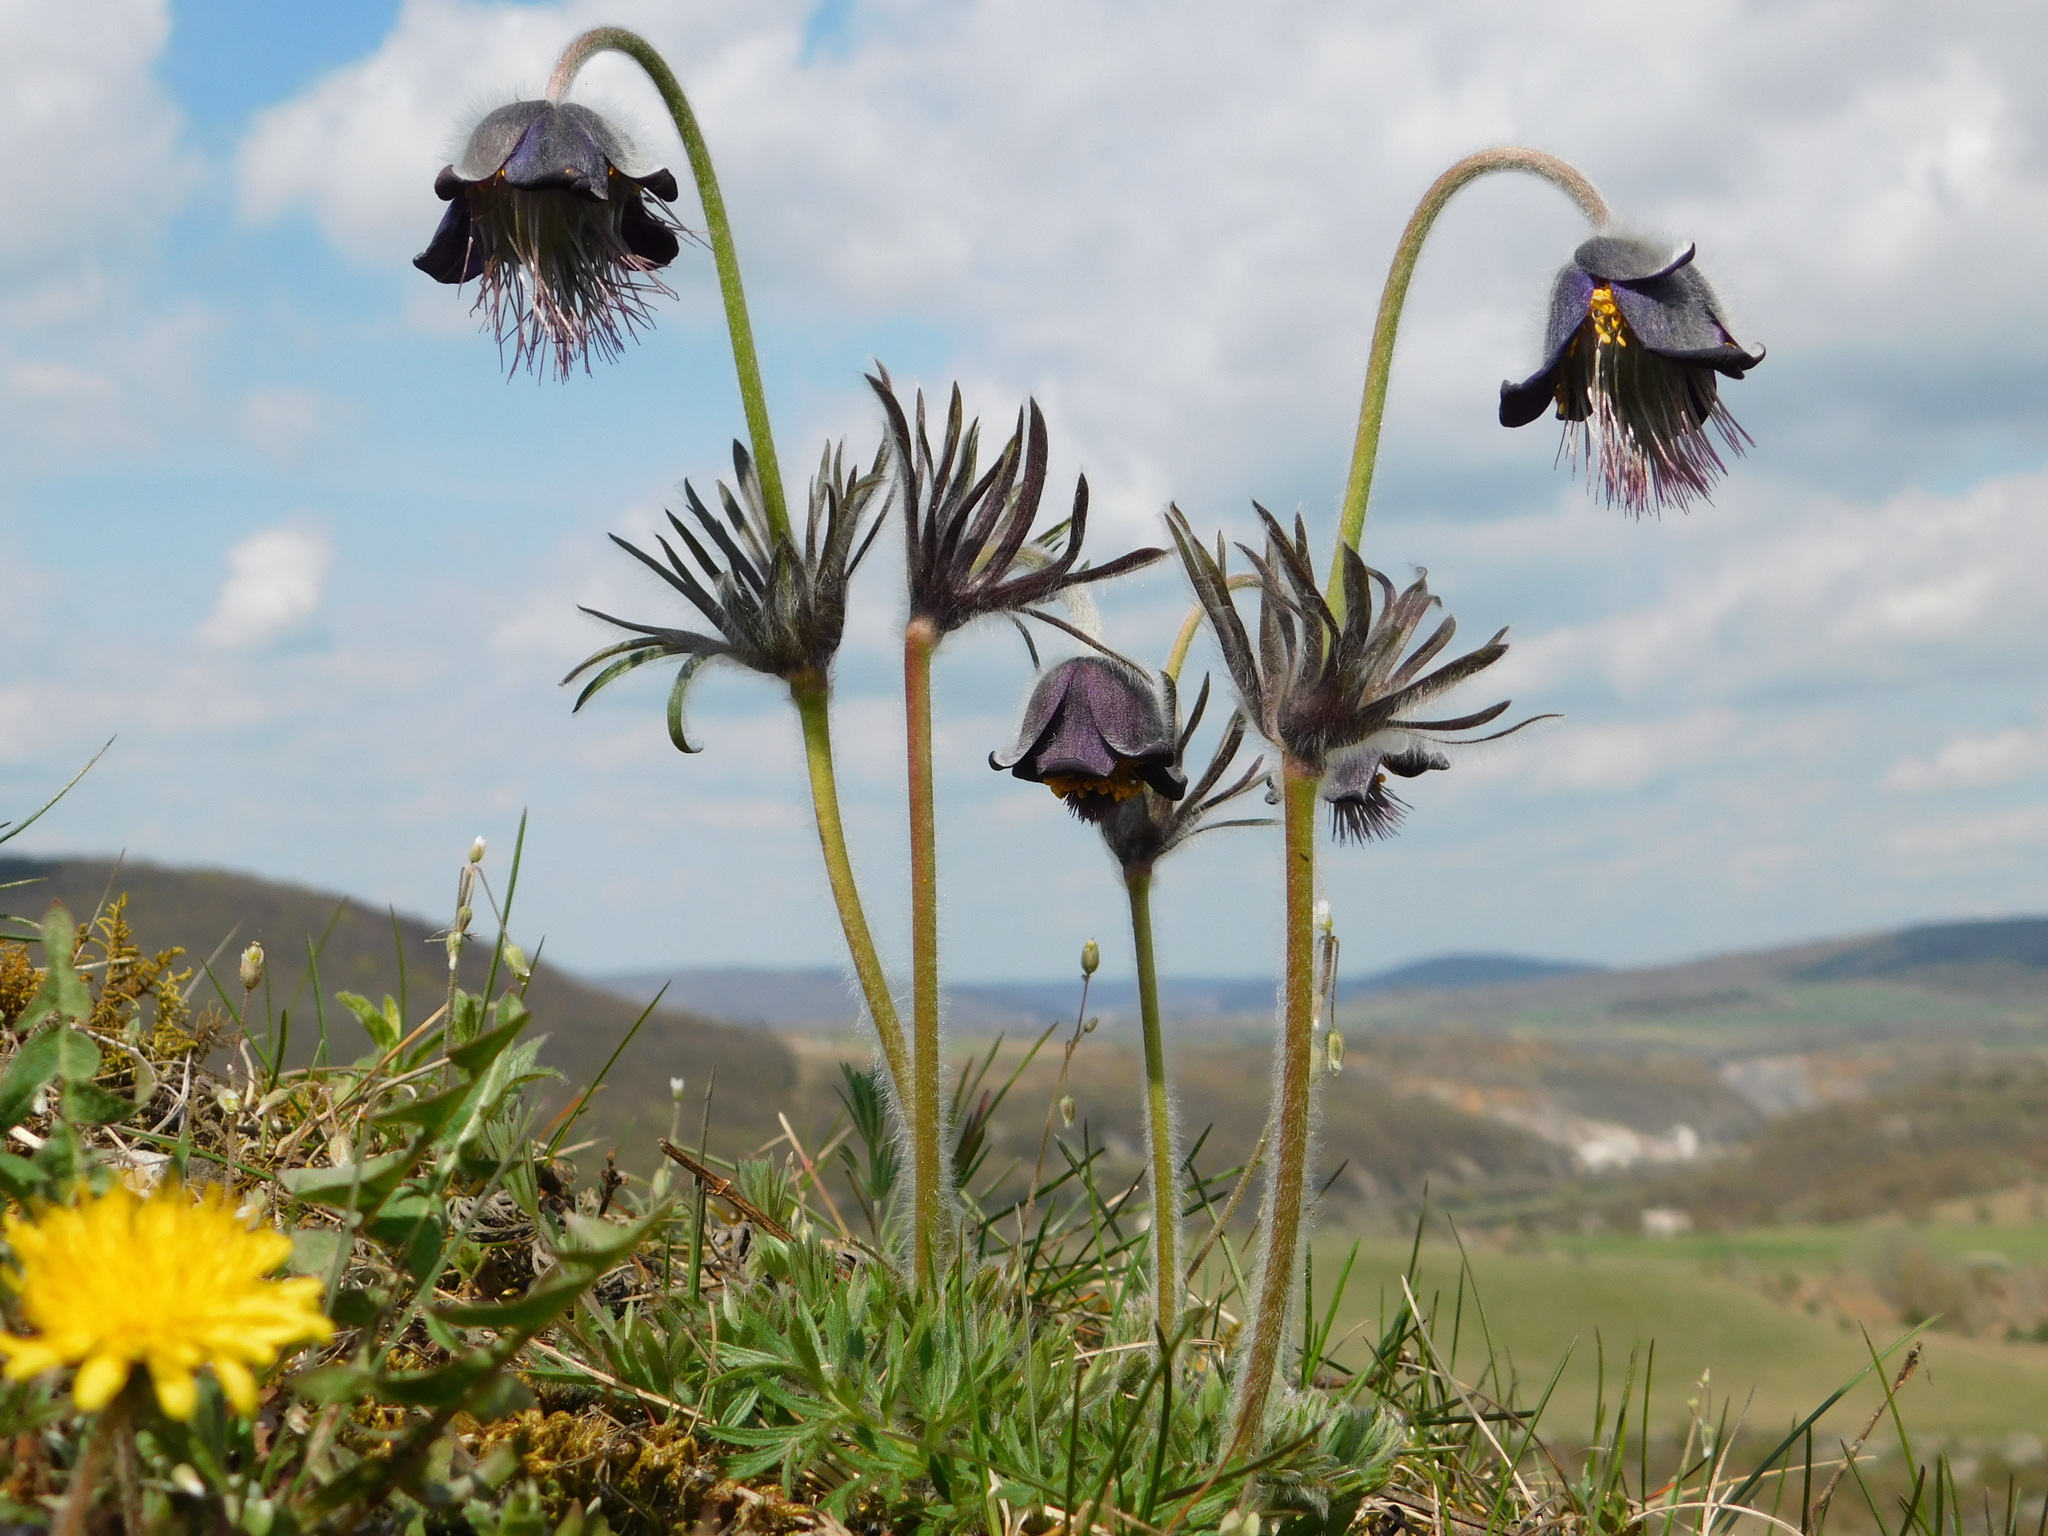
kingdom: Plantae
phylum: Tracheophyta
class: Magnoliopsida
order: Ranunculales
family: Ranunculaceae
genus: Pulsatilla
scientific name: Pulsatilla pratensis
